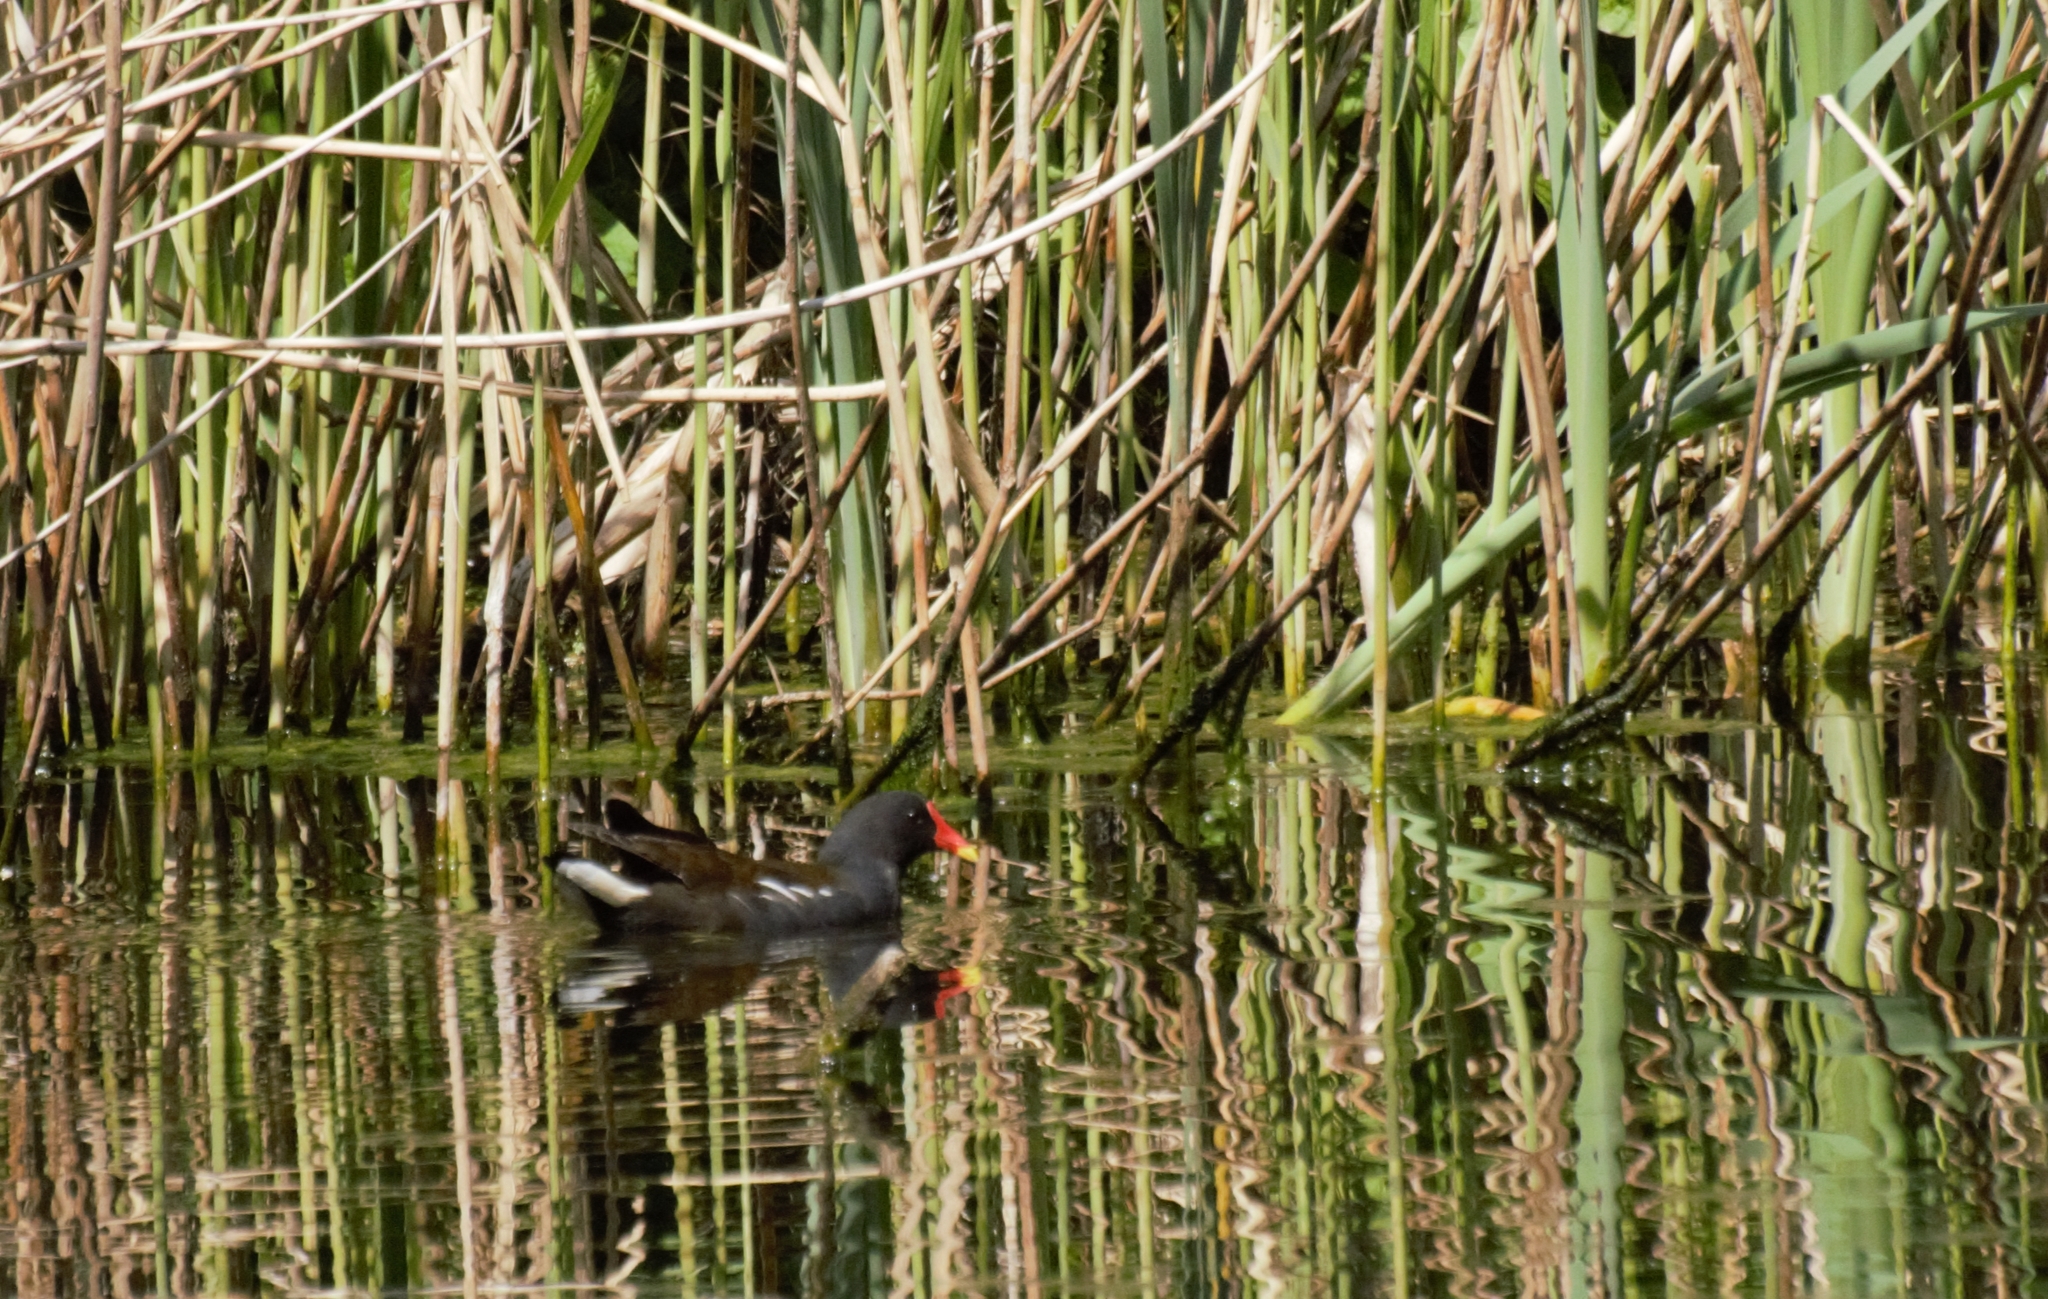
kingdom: Animalia
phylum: Chordata
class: Aves
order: Gruiformes
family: Rallidae
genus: Gallinula
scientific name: Gallinula chloropus
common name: Common moorhen
